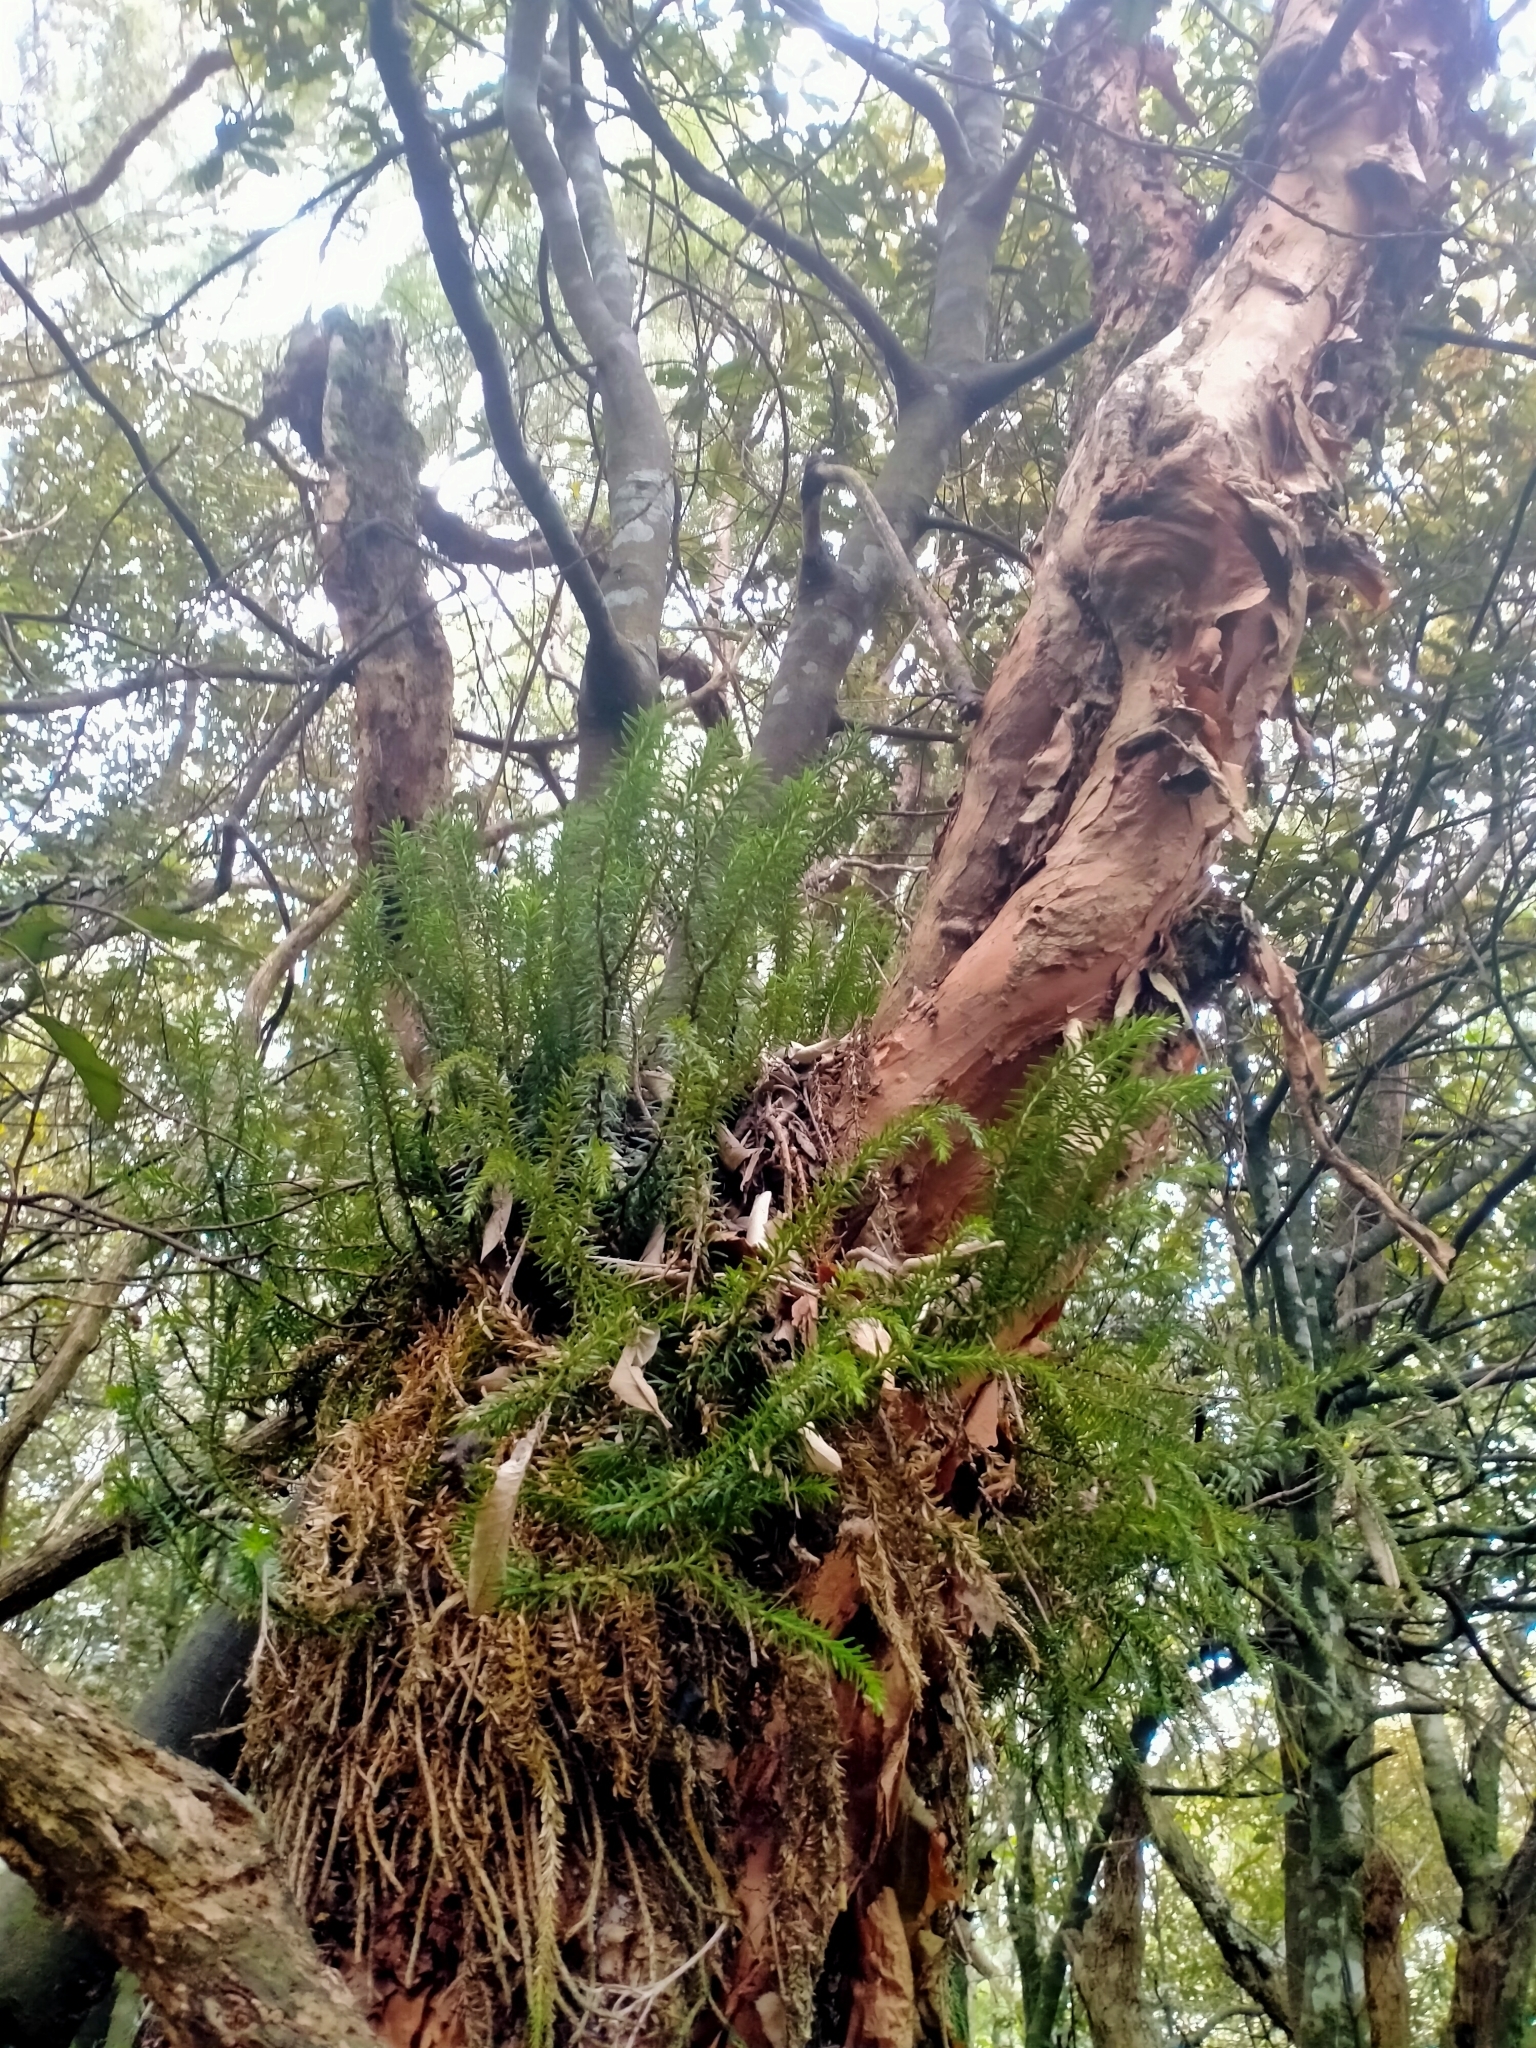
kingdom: Plantae
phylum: Tracheophyta
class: Lycopodiopsida
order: Lycopodiales
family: Lycopodiaceae
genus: Phlegmariurus
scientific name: Phlegmariurus varius
